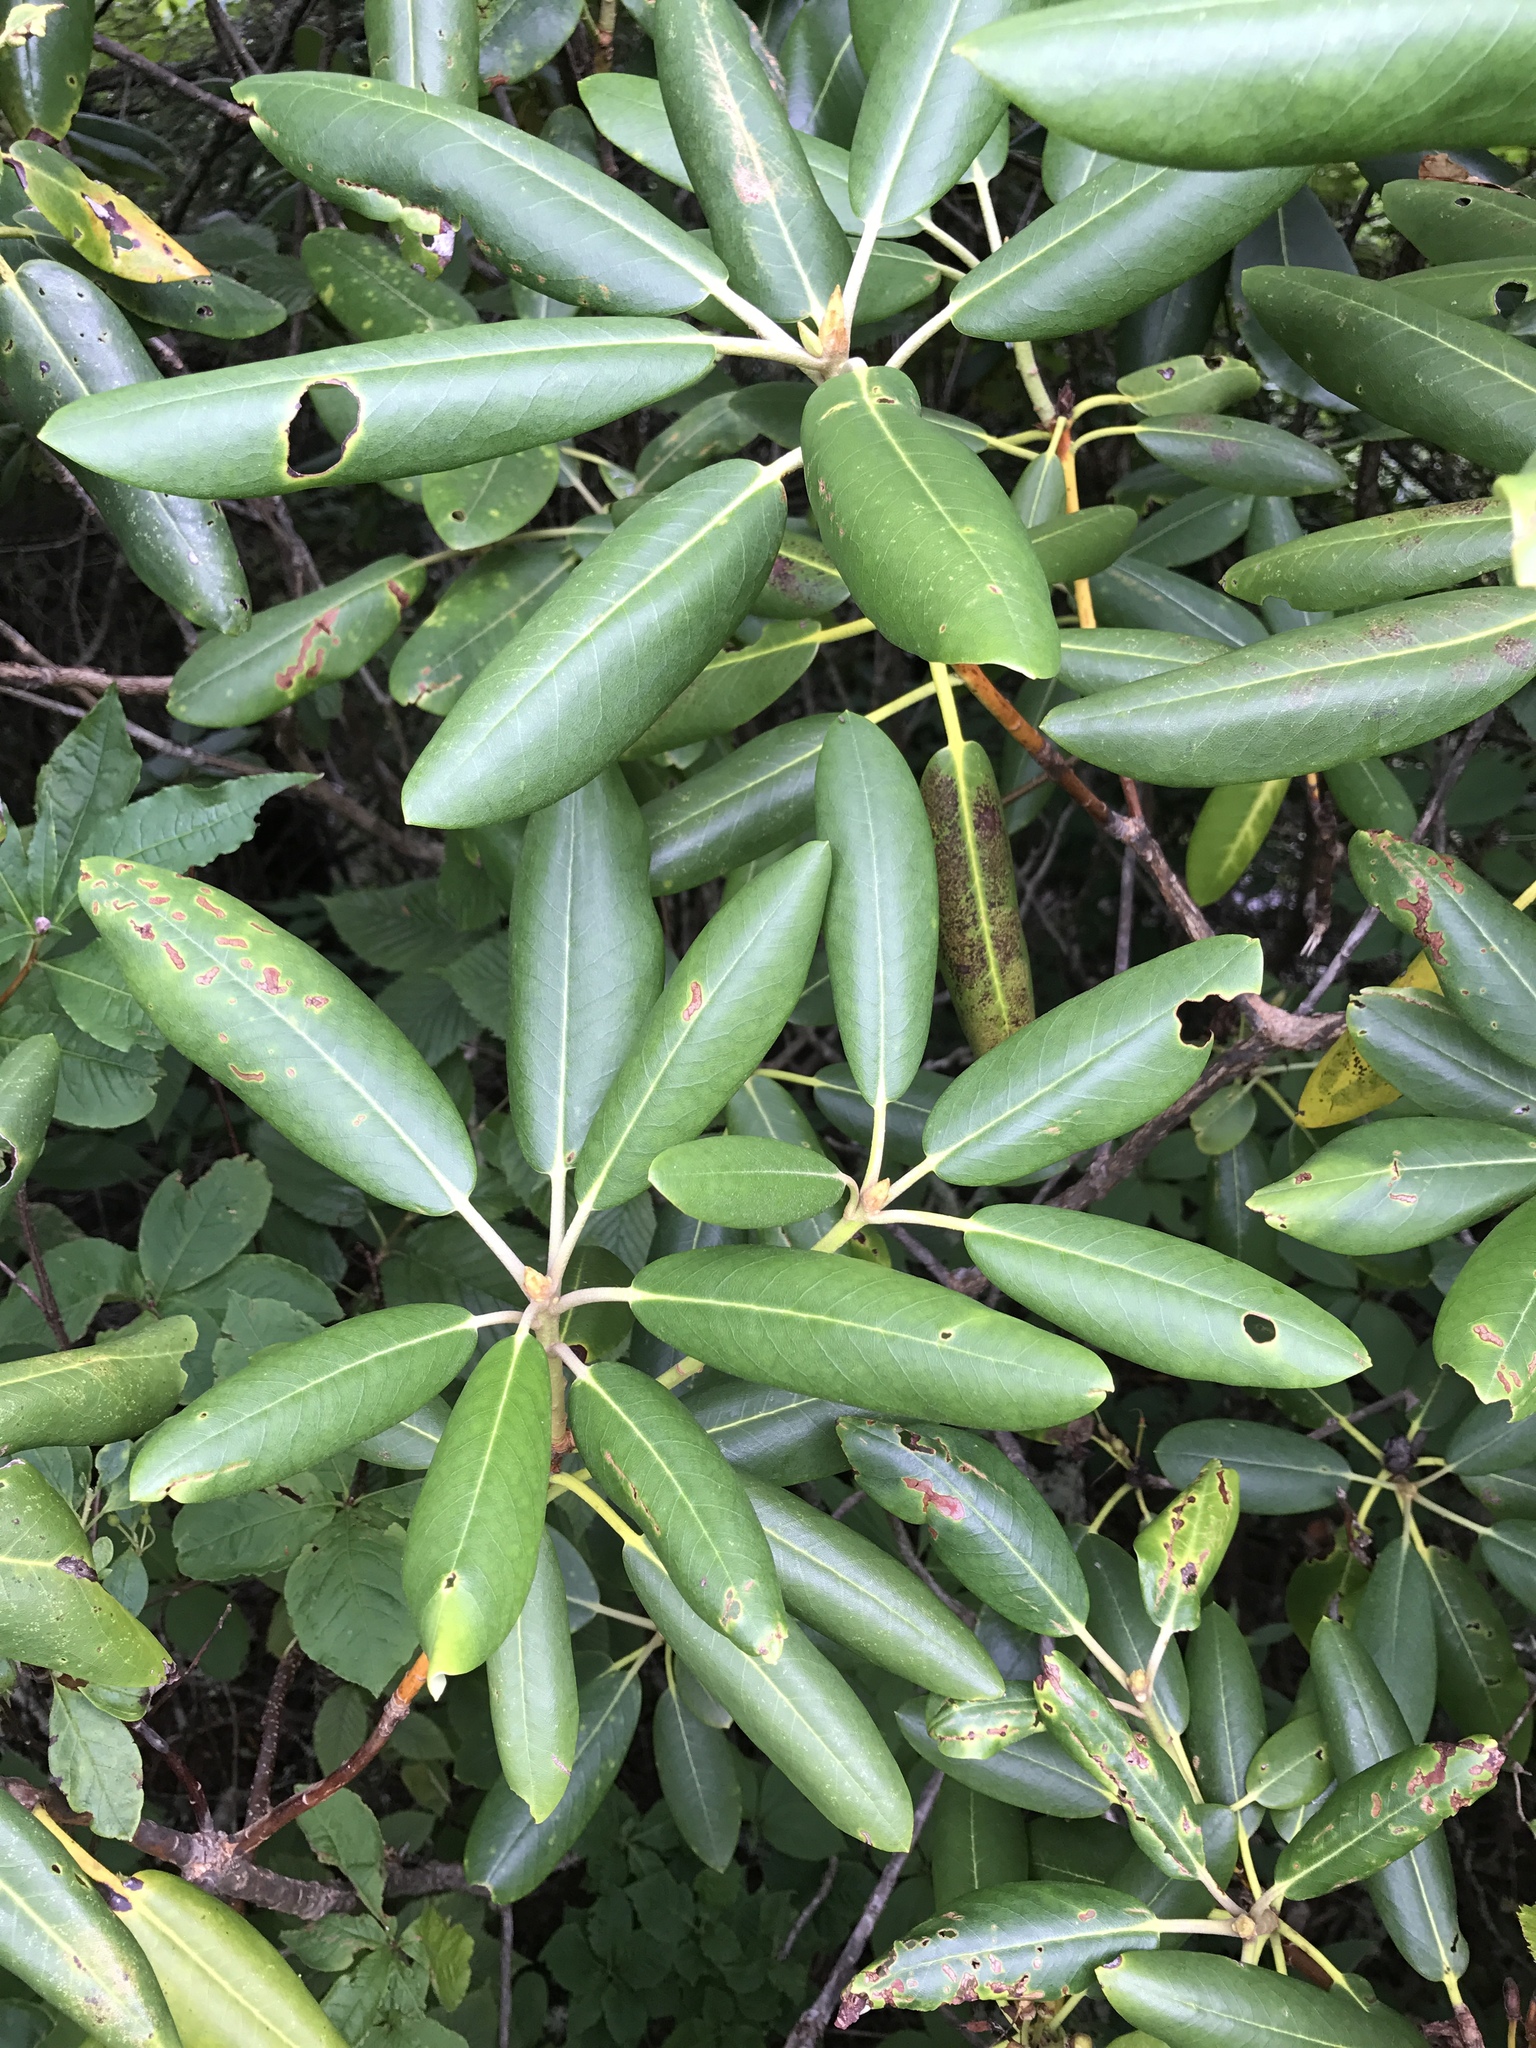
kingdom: Plantae
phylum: Tracheophyta
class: Magnoliopsida
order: Ericales
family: Ericaceae
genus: Rhododendron
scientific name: Rhododendron catawbiense
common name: Catawba rhododendron
